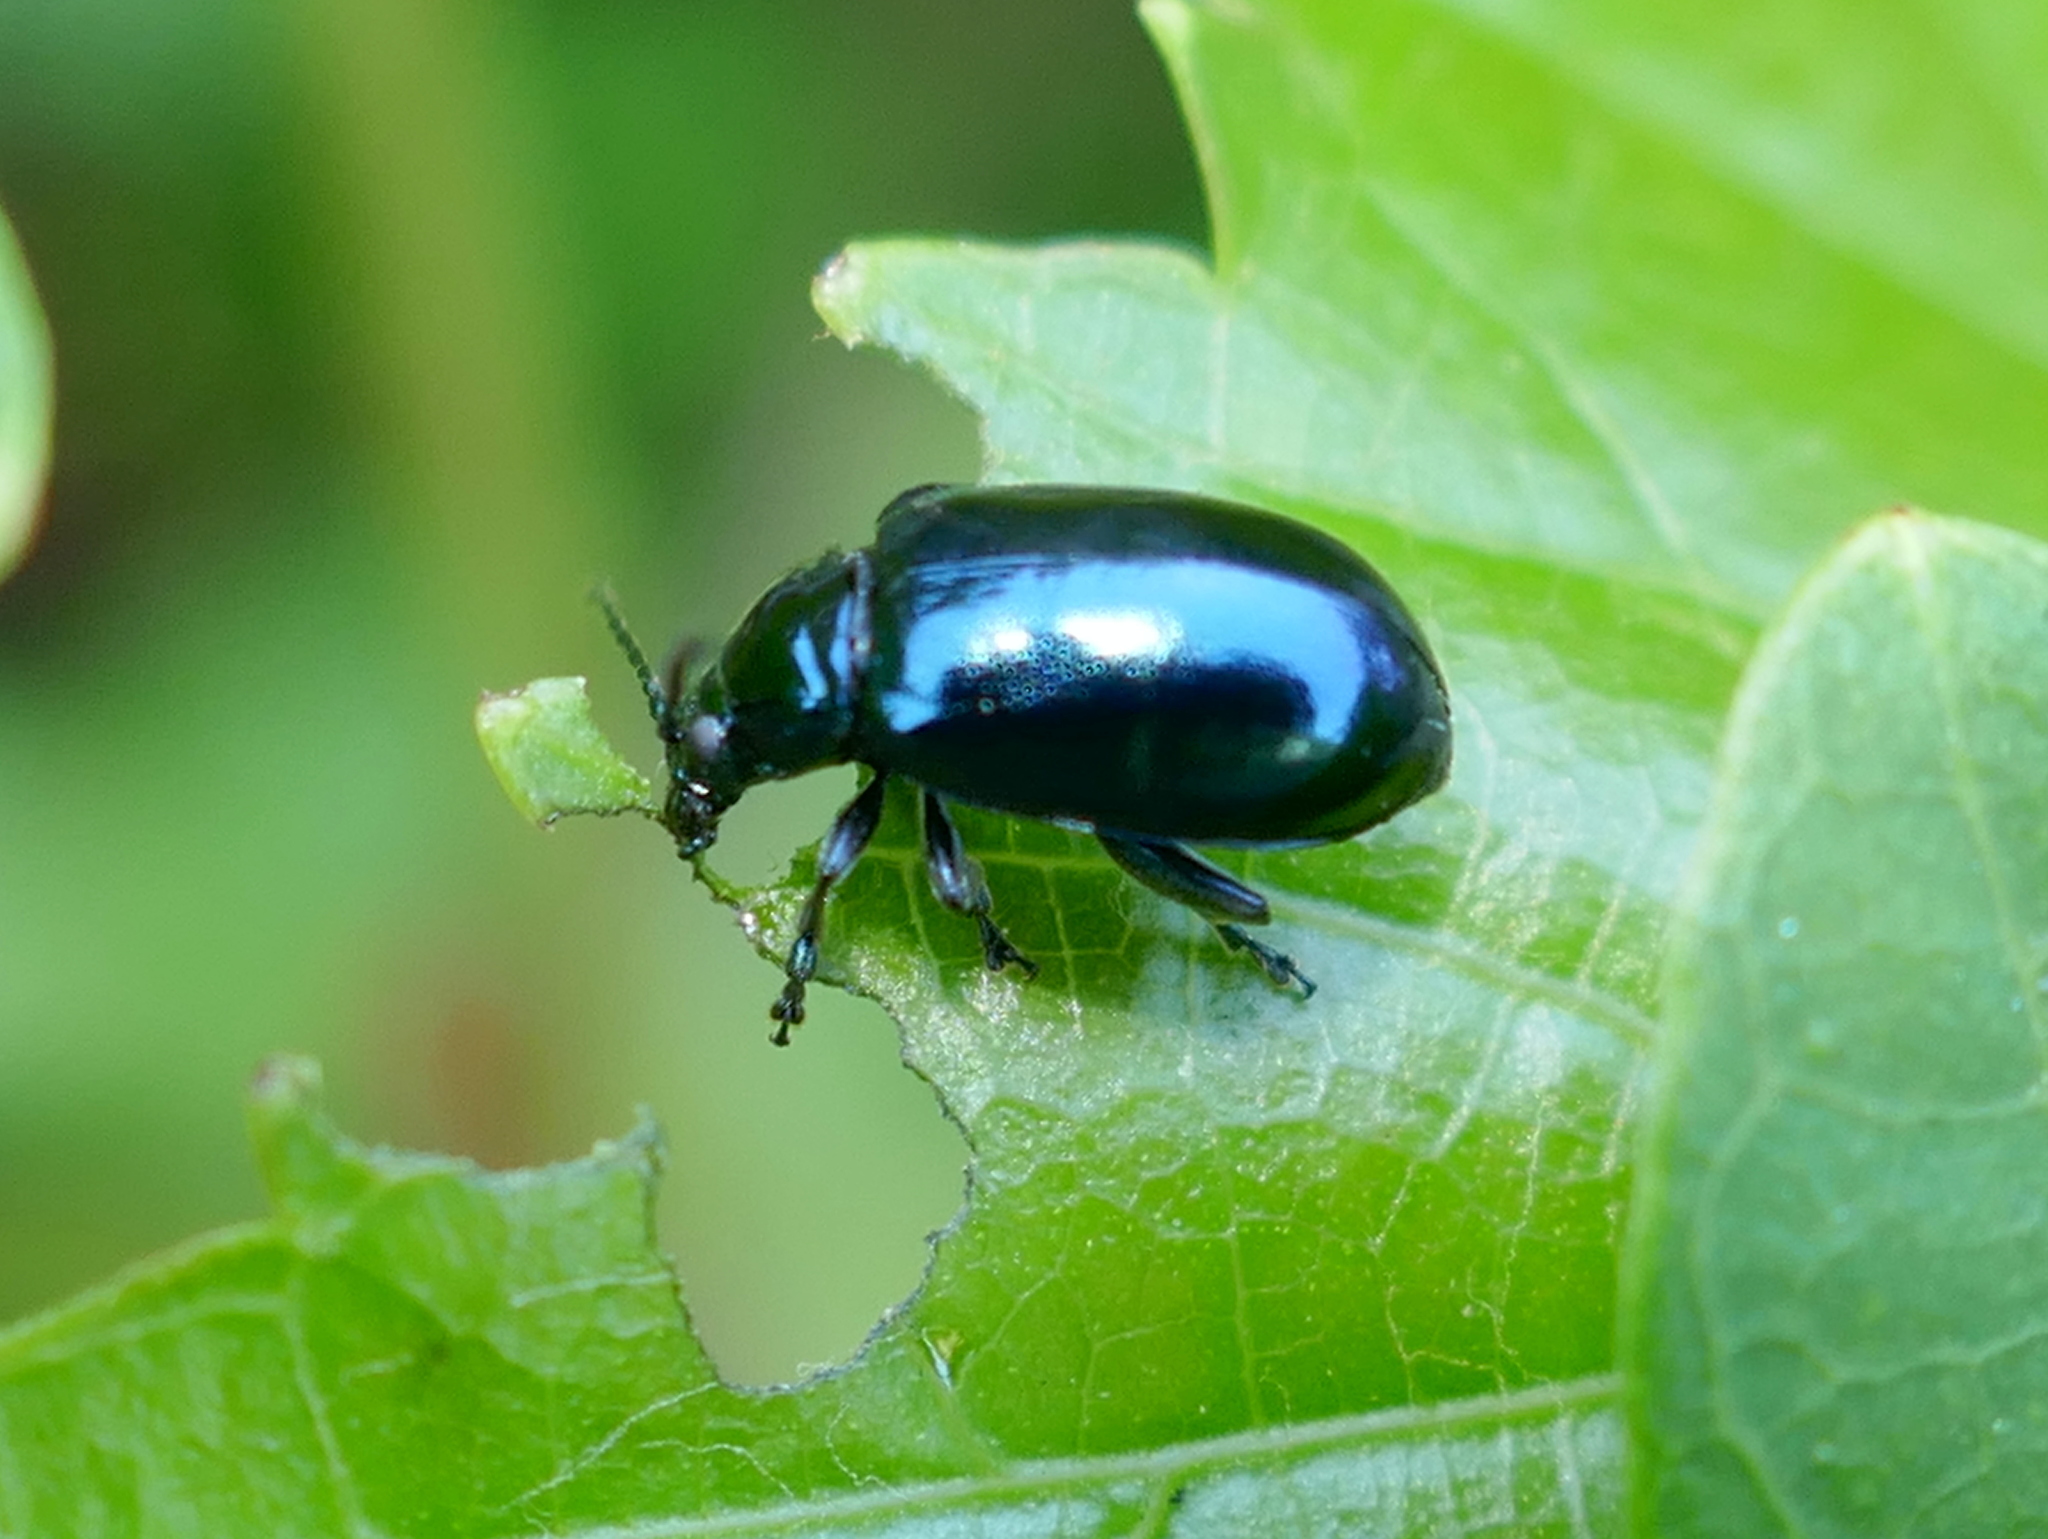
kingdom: Animalia
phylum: Arthropoda
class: Insecta
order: Coleoptera
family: Chrysomelidae
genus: Altica
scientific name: Altica chalybea
